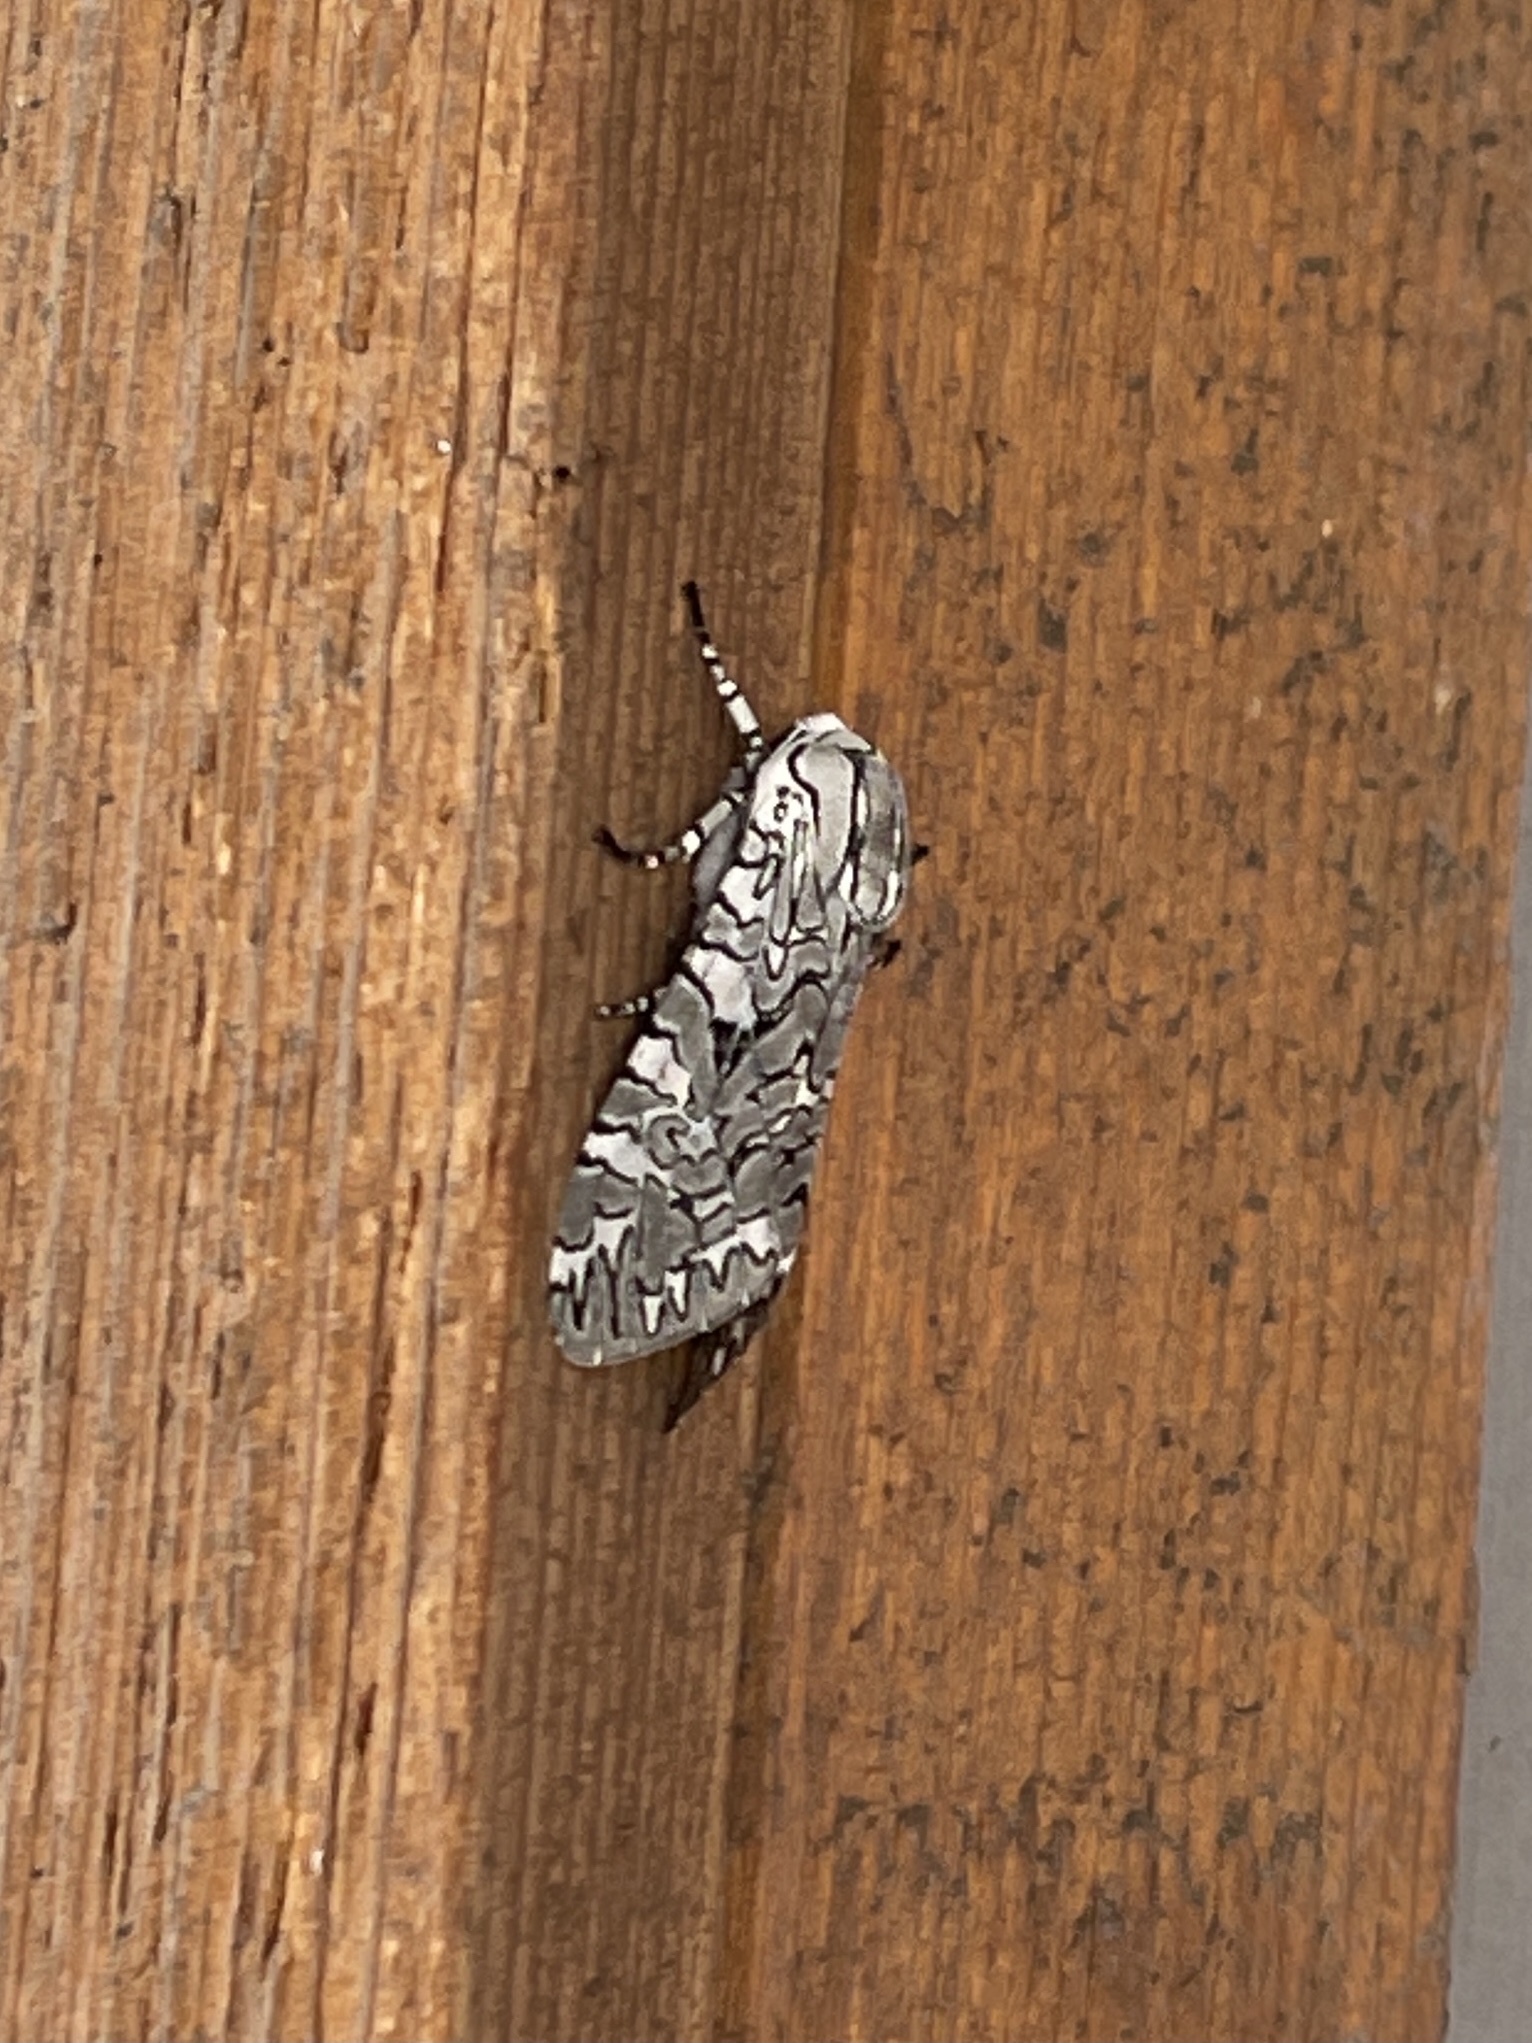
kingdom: Animalia
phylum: Arthropoda
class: Insecta
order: Lepidoptera
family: Erebidae
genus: Arachnis
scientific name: Arachnis picta
